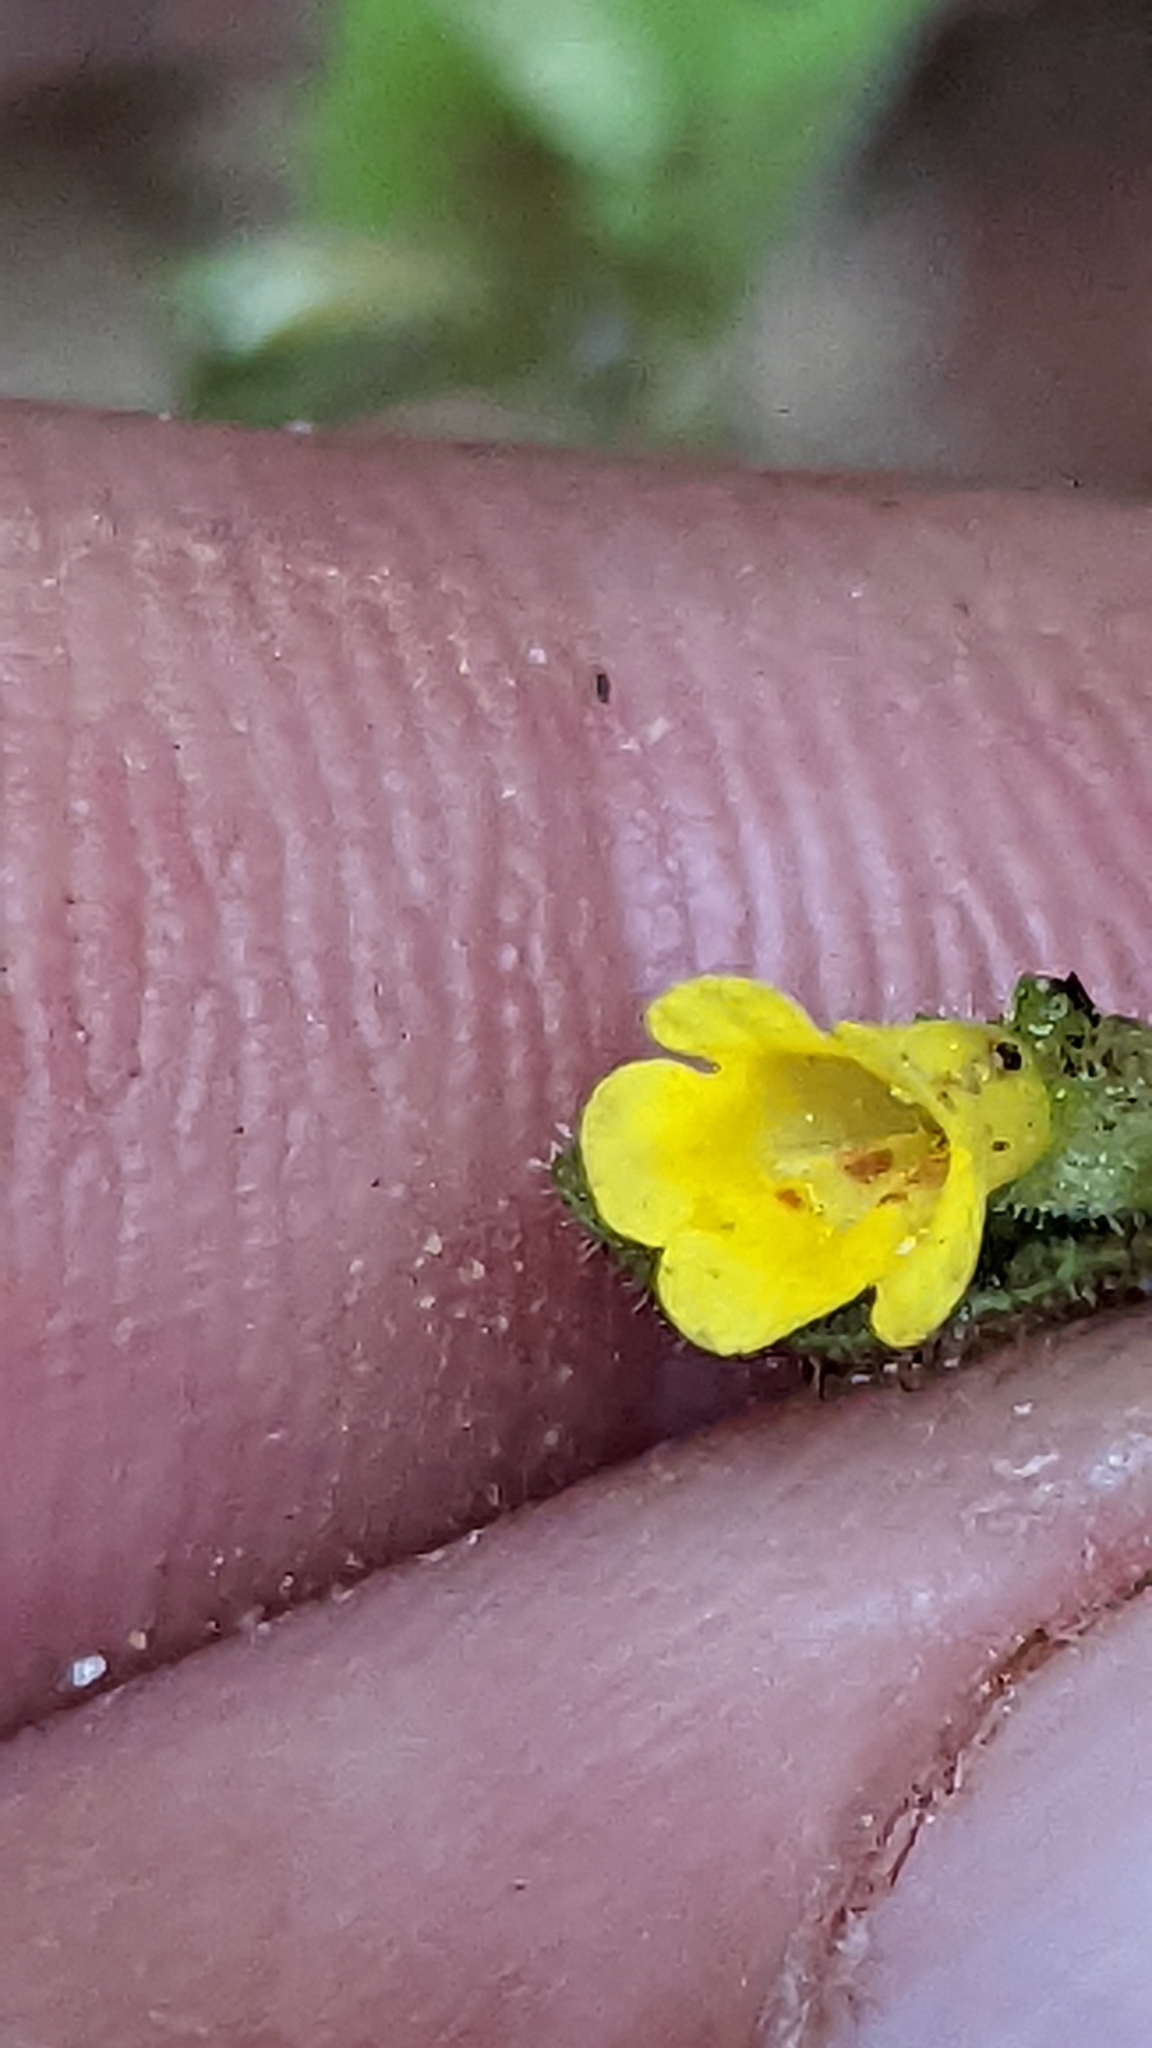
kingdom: Plantae
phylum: Tracheophyta
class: Magnoliopsida
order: Lamiales
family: Phrymaceae
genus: Erythranthe
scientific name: Erythranthe floribunda
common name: Floriferous monkeyflower
